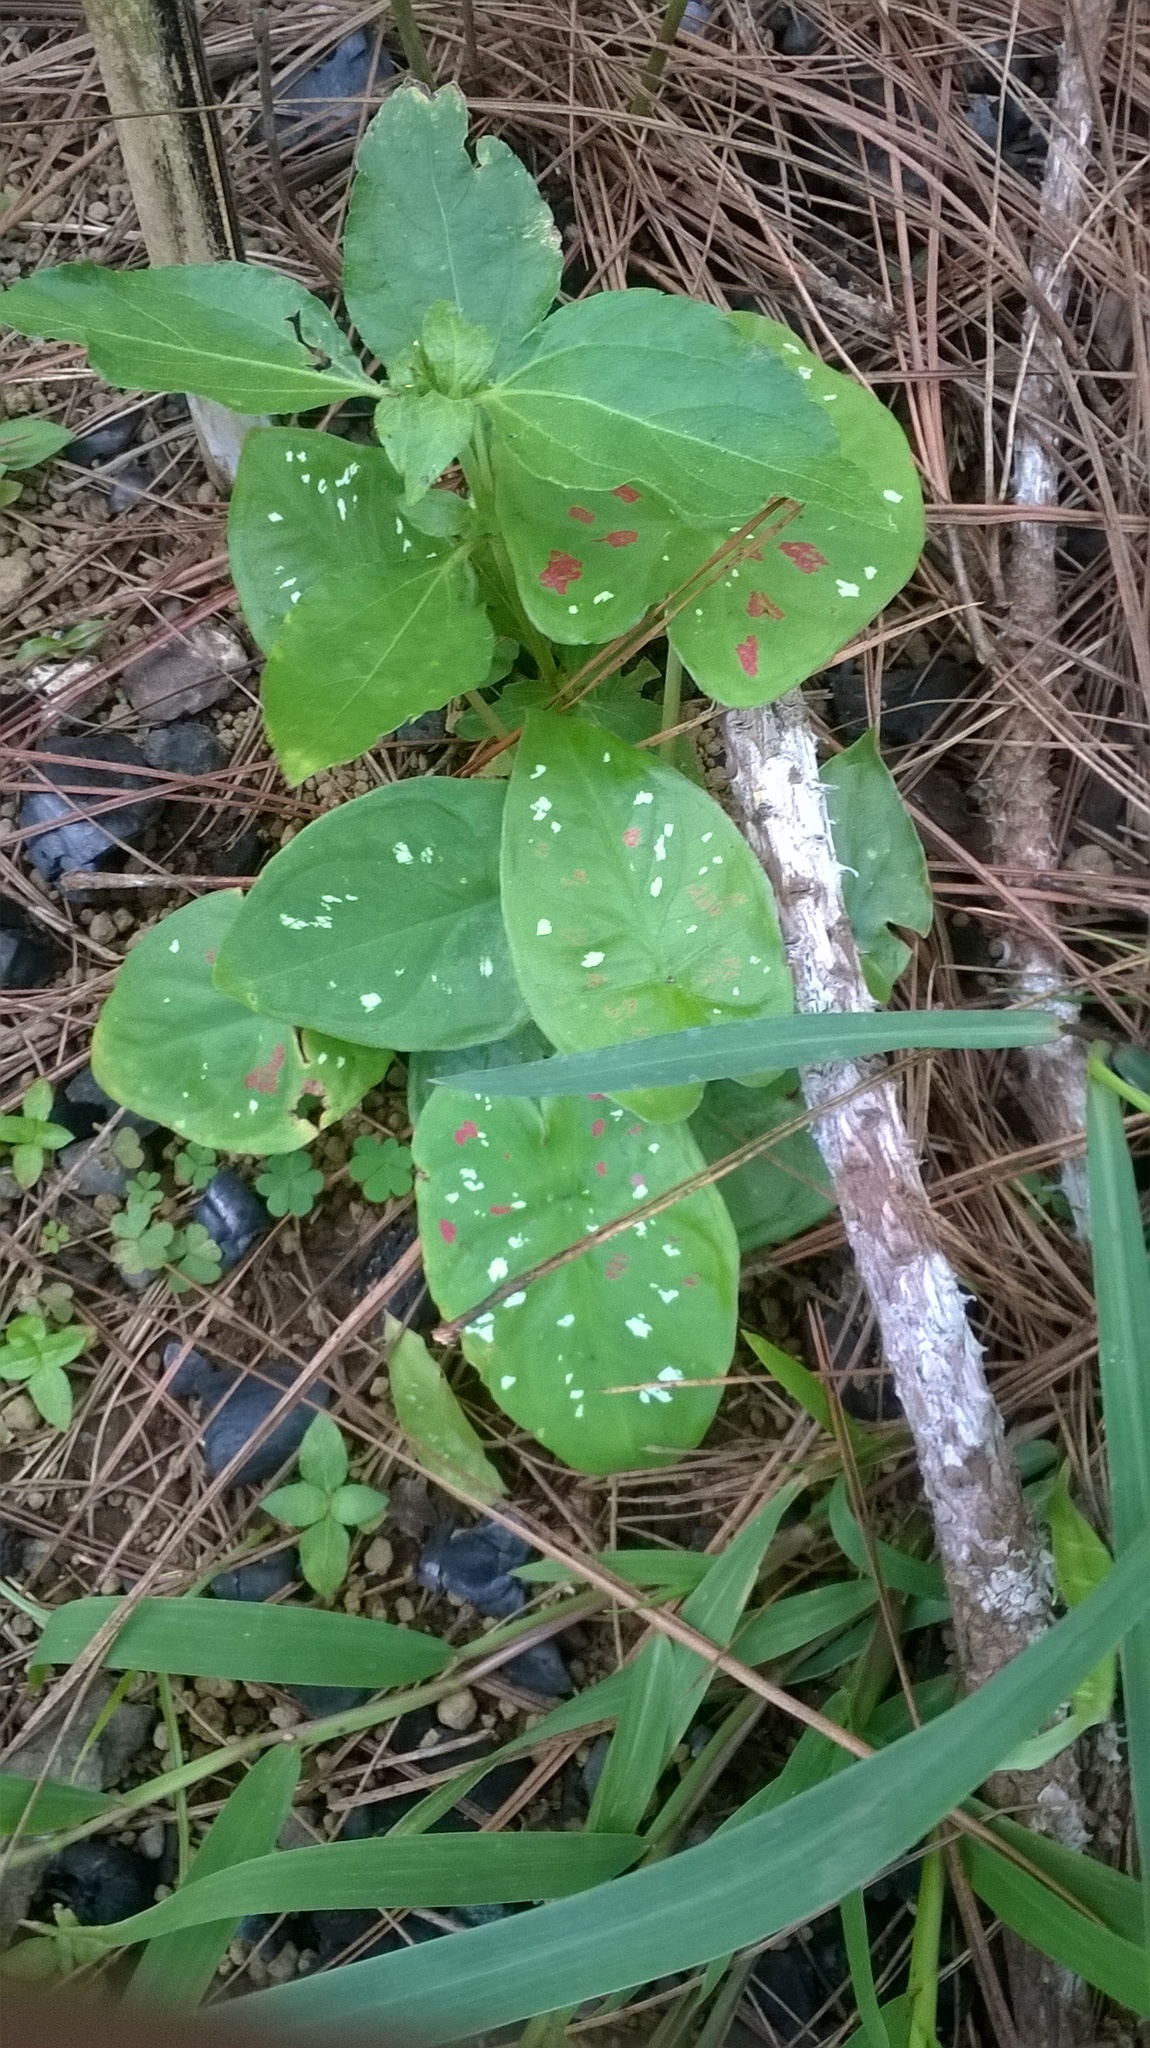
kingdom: Plantae
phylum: Tracheophyta
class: Liliopsida
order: Alismatales
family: Araceae
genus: Caladium
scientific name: Caladium bicolor
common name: Artist's pallet
